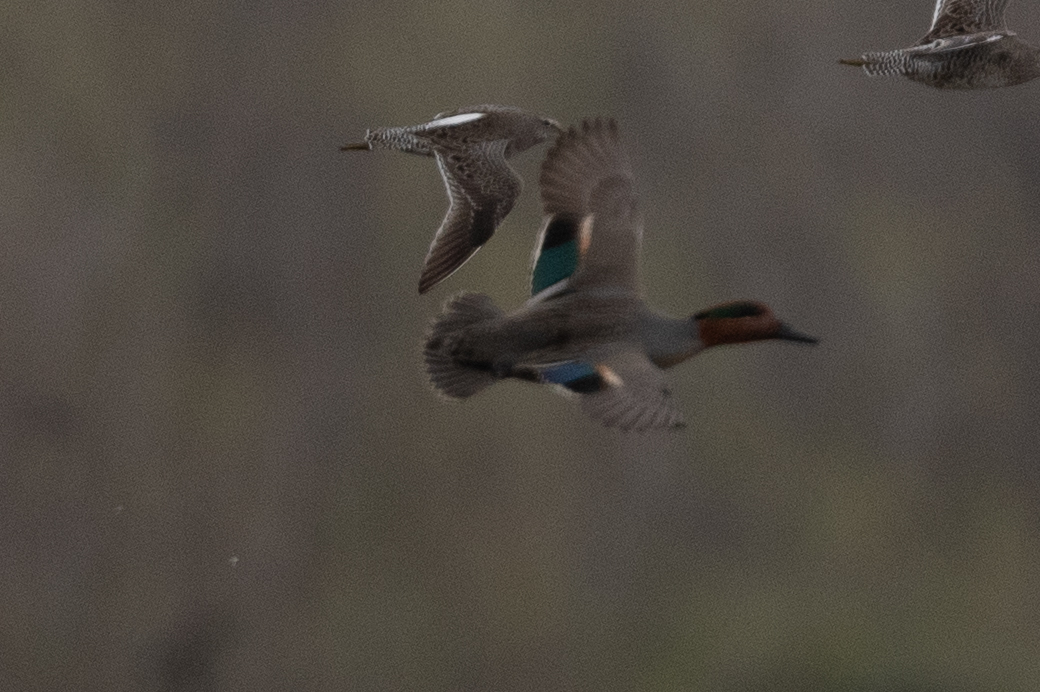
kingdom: Animalia
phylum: Chordata
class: Aves
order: Anseriformes
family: Anatidae
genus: Anas
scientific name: Anas crecca
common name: Eurasian teal
